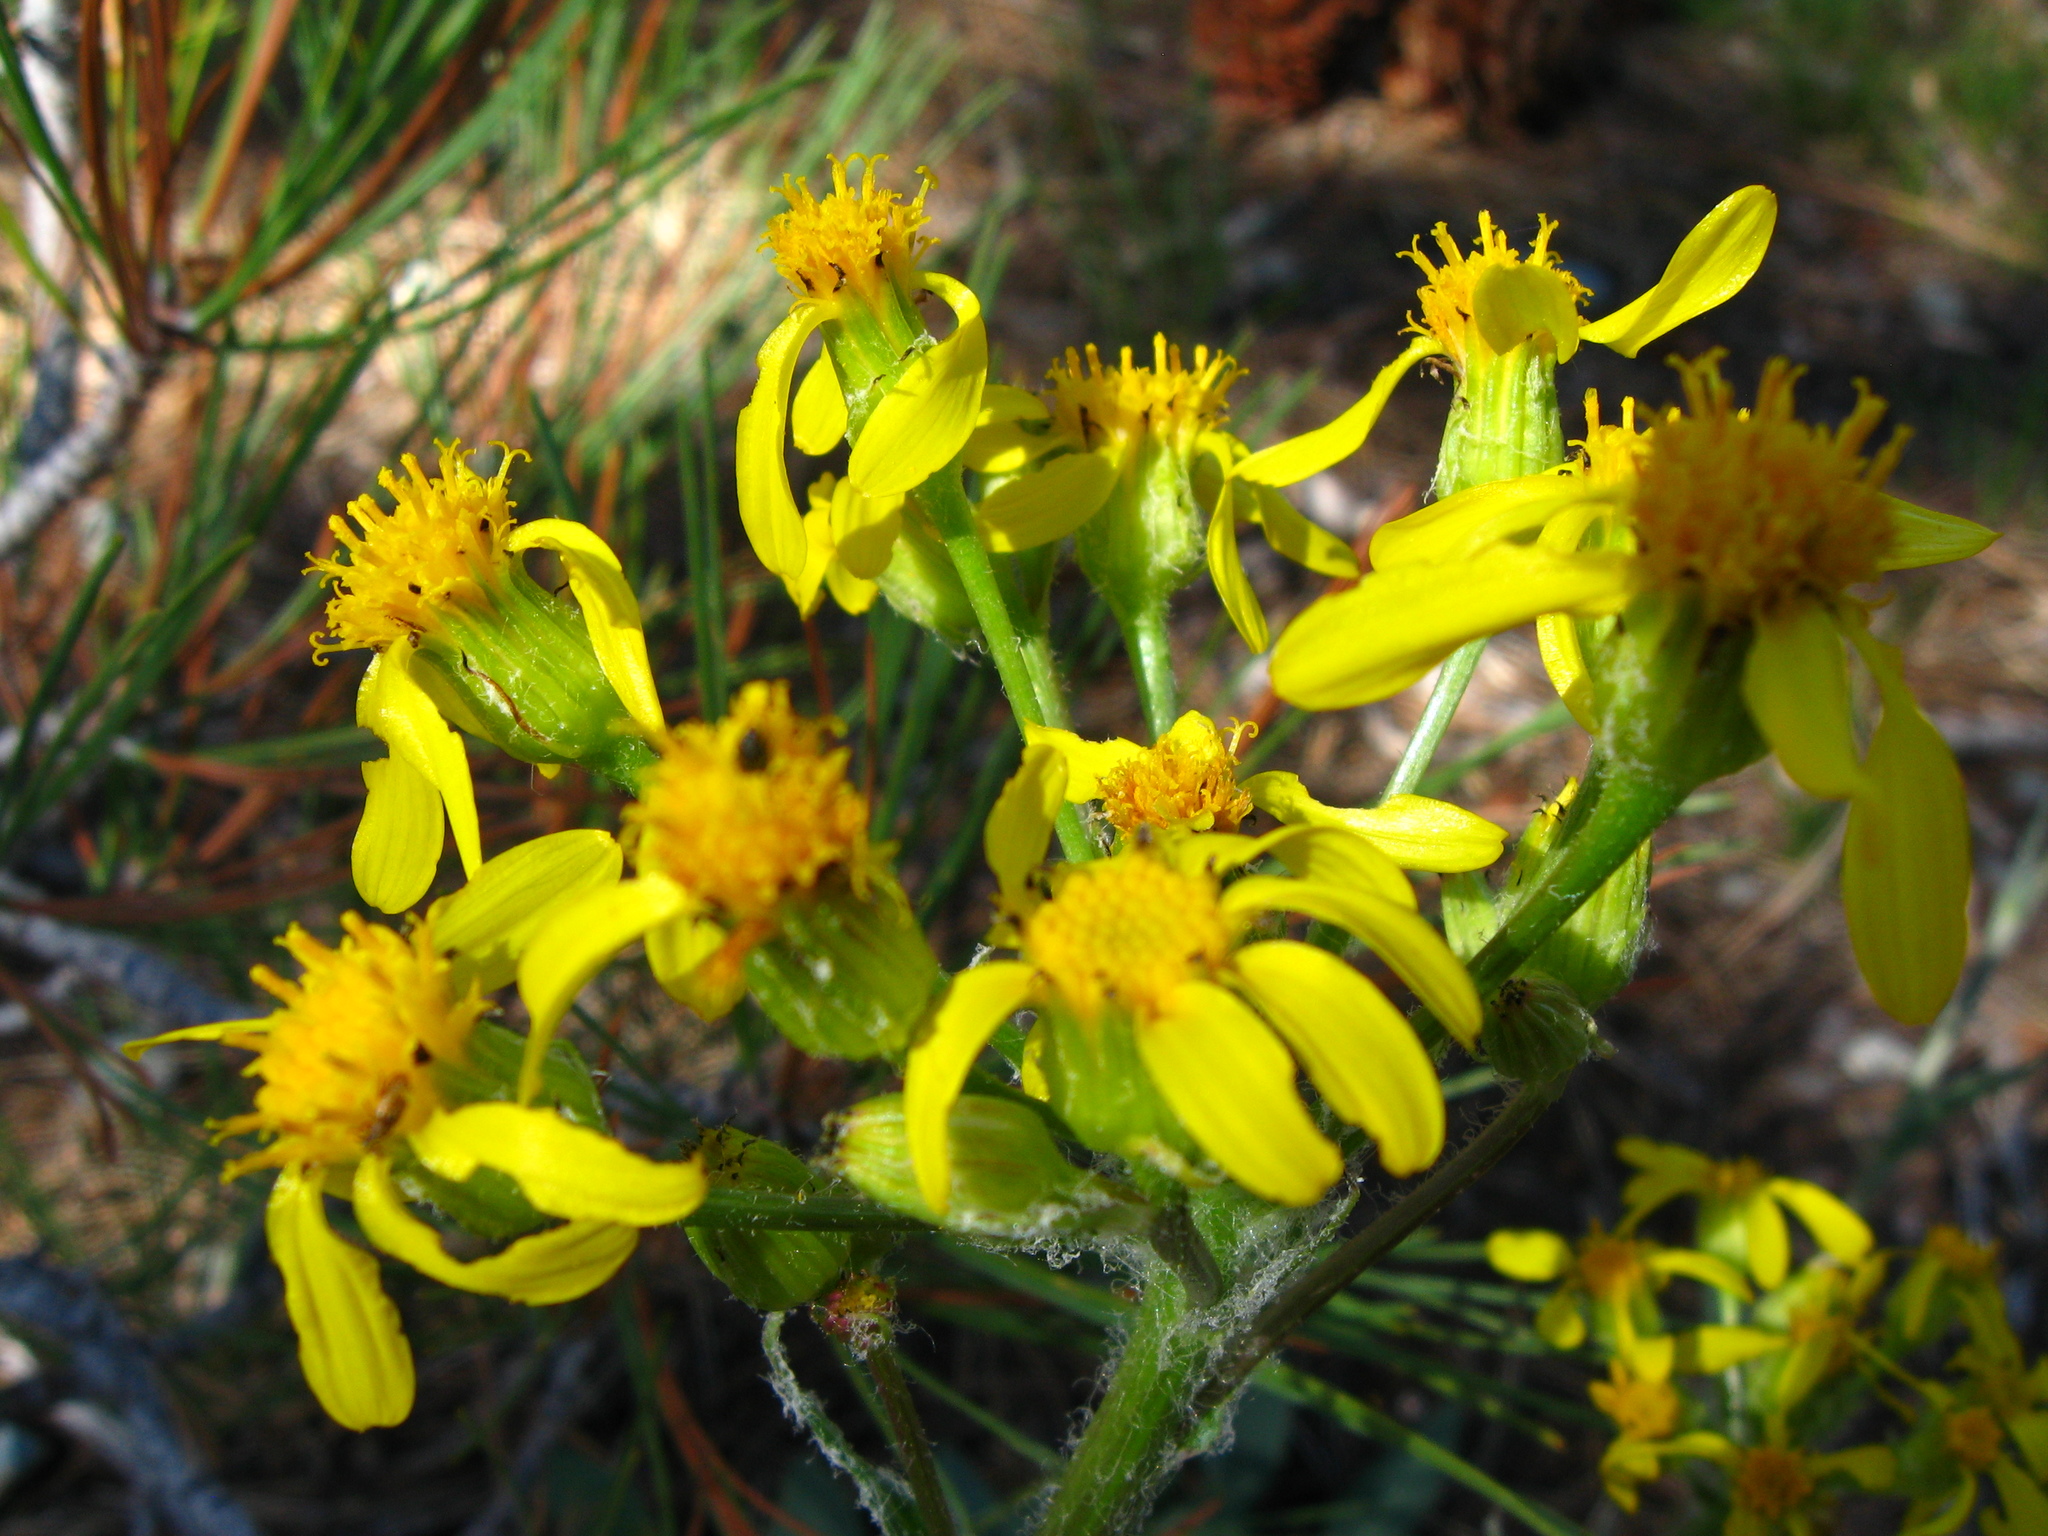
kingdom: Plantae
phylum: Tracheophyta
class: Magnoliopsida
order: Asterales
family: Asteraceae
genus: Senecio
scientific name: Senecio integerrimus
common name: Gaugeplant
